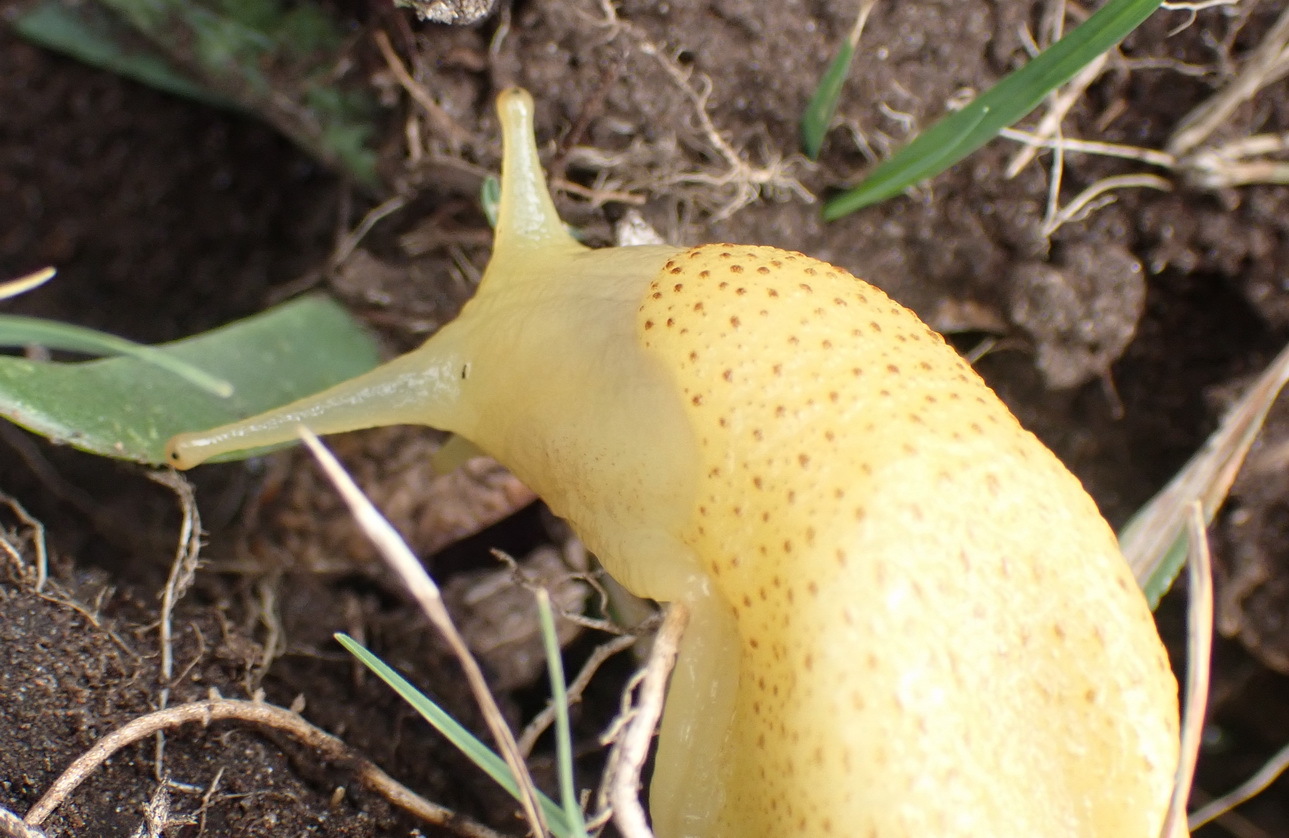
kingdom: Animalia
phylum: Mollusca
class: Gastropoda
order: Stylommatophora
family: Oopeltidae
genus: Oopelta
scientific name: Oopelta capensis
